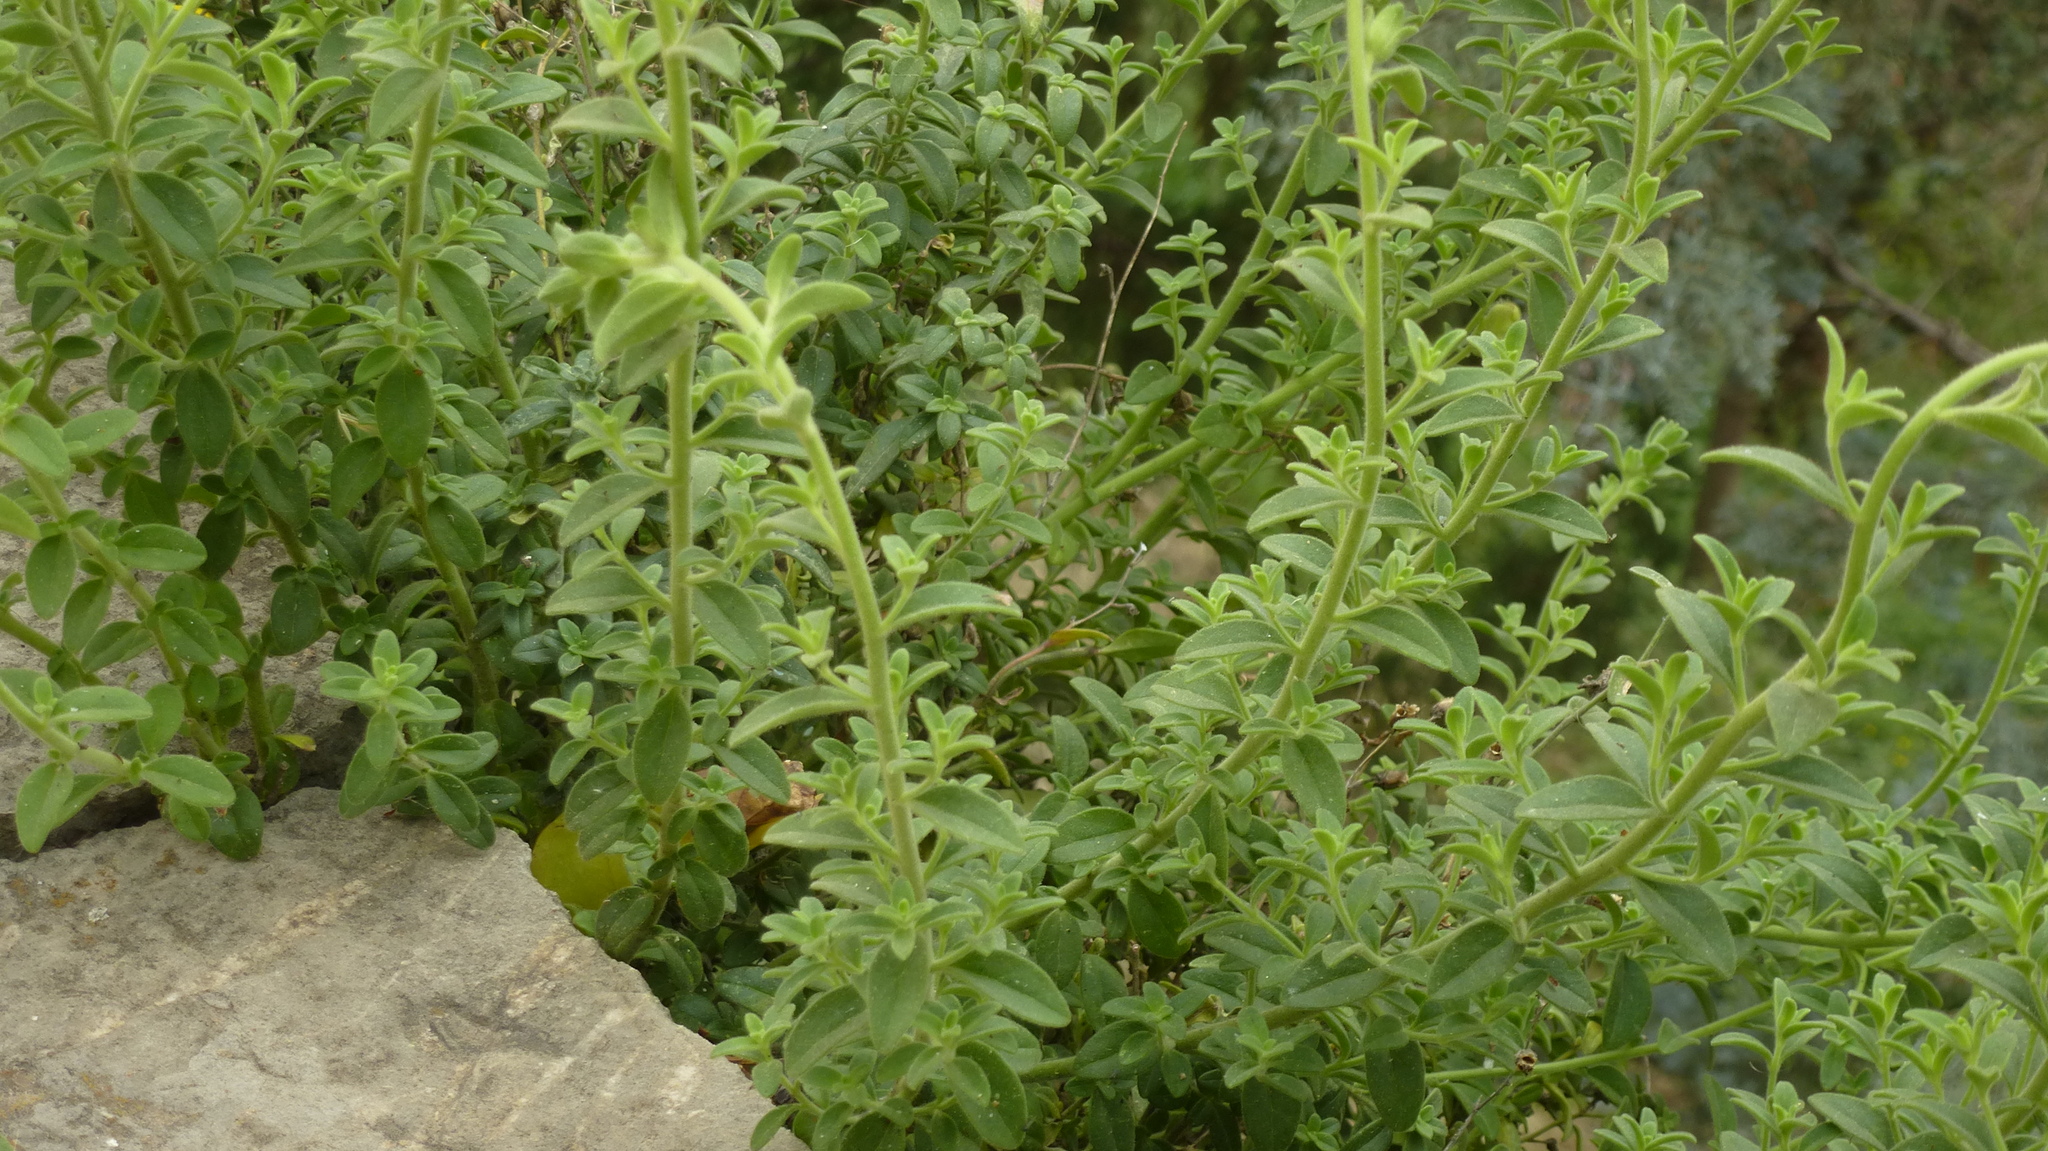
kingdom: Plantae
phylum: Tracheophyta
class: Magnoliopsida
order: Lamiales
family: Plantaginaceae
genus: Antirrhinum
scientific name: Antirrhinum hispanicum
